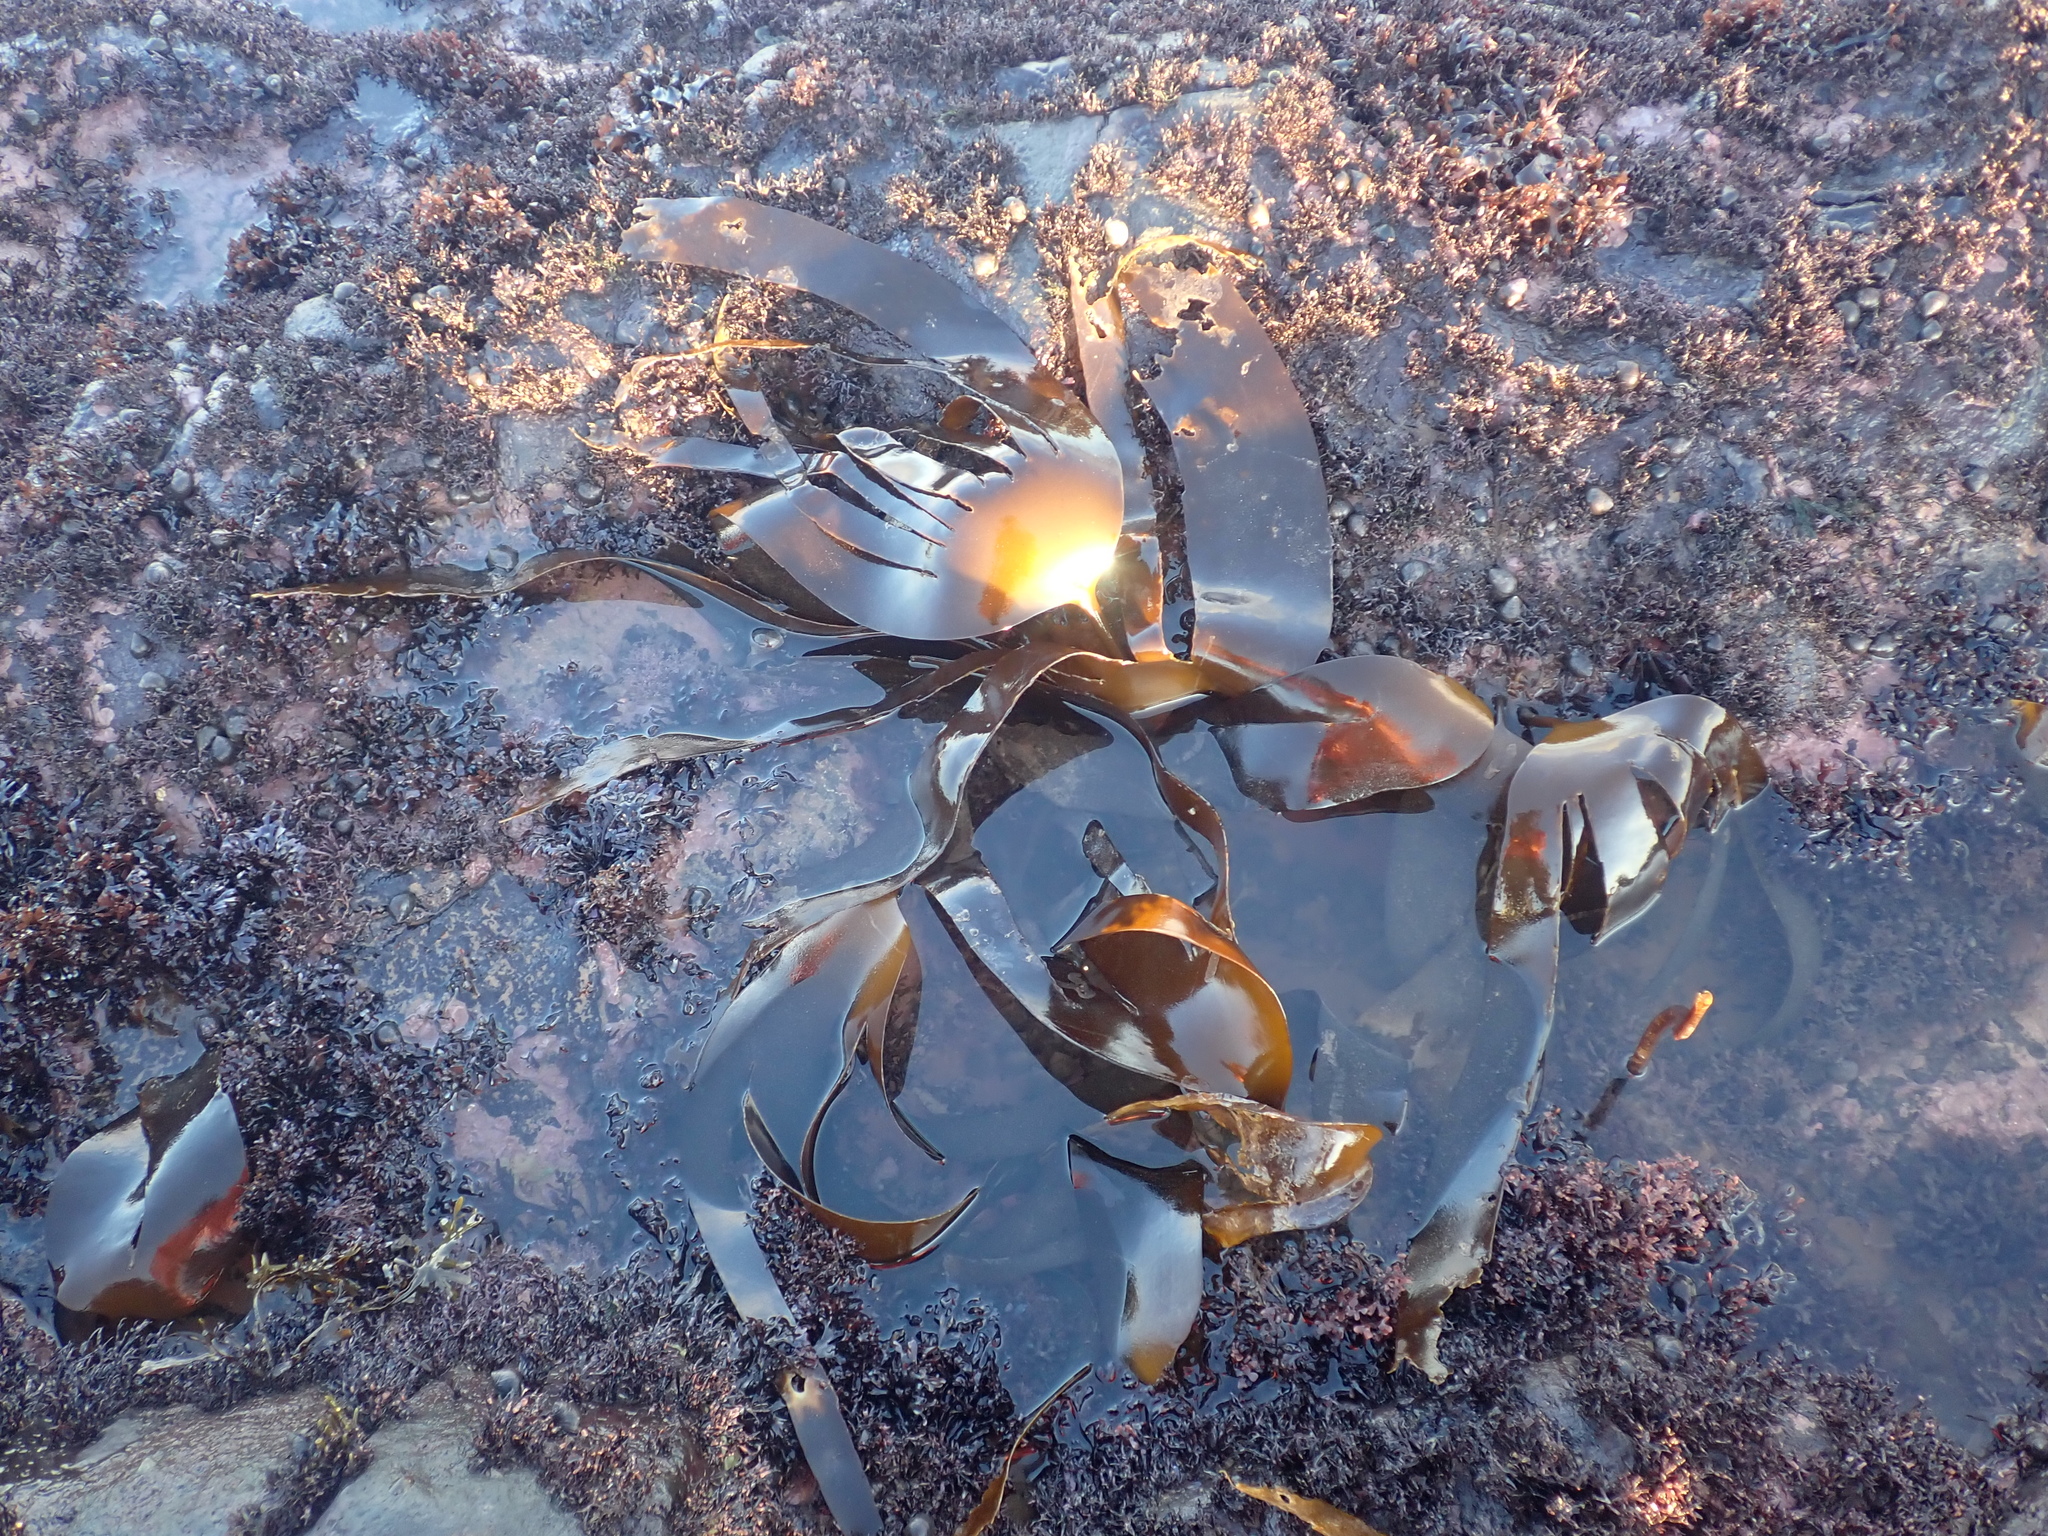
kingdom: Chromista
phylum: Ochrophyta
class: Phaeophyceae
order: Laminariales
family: Laminariaceae
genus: Laminaria
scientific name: Laminaria digitata
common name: Oarweed
